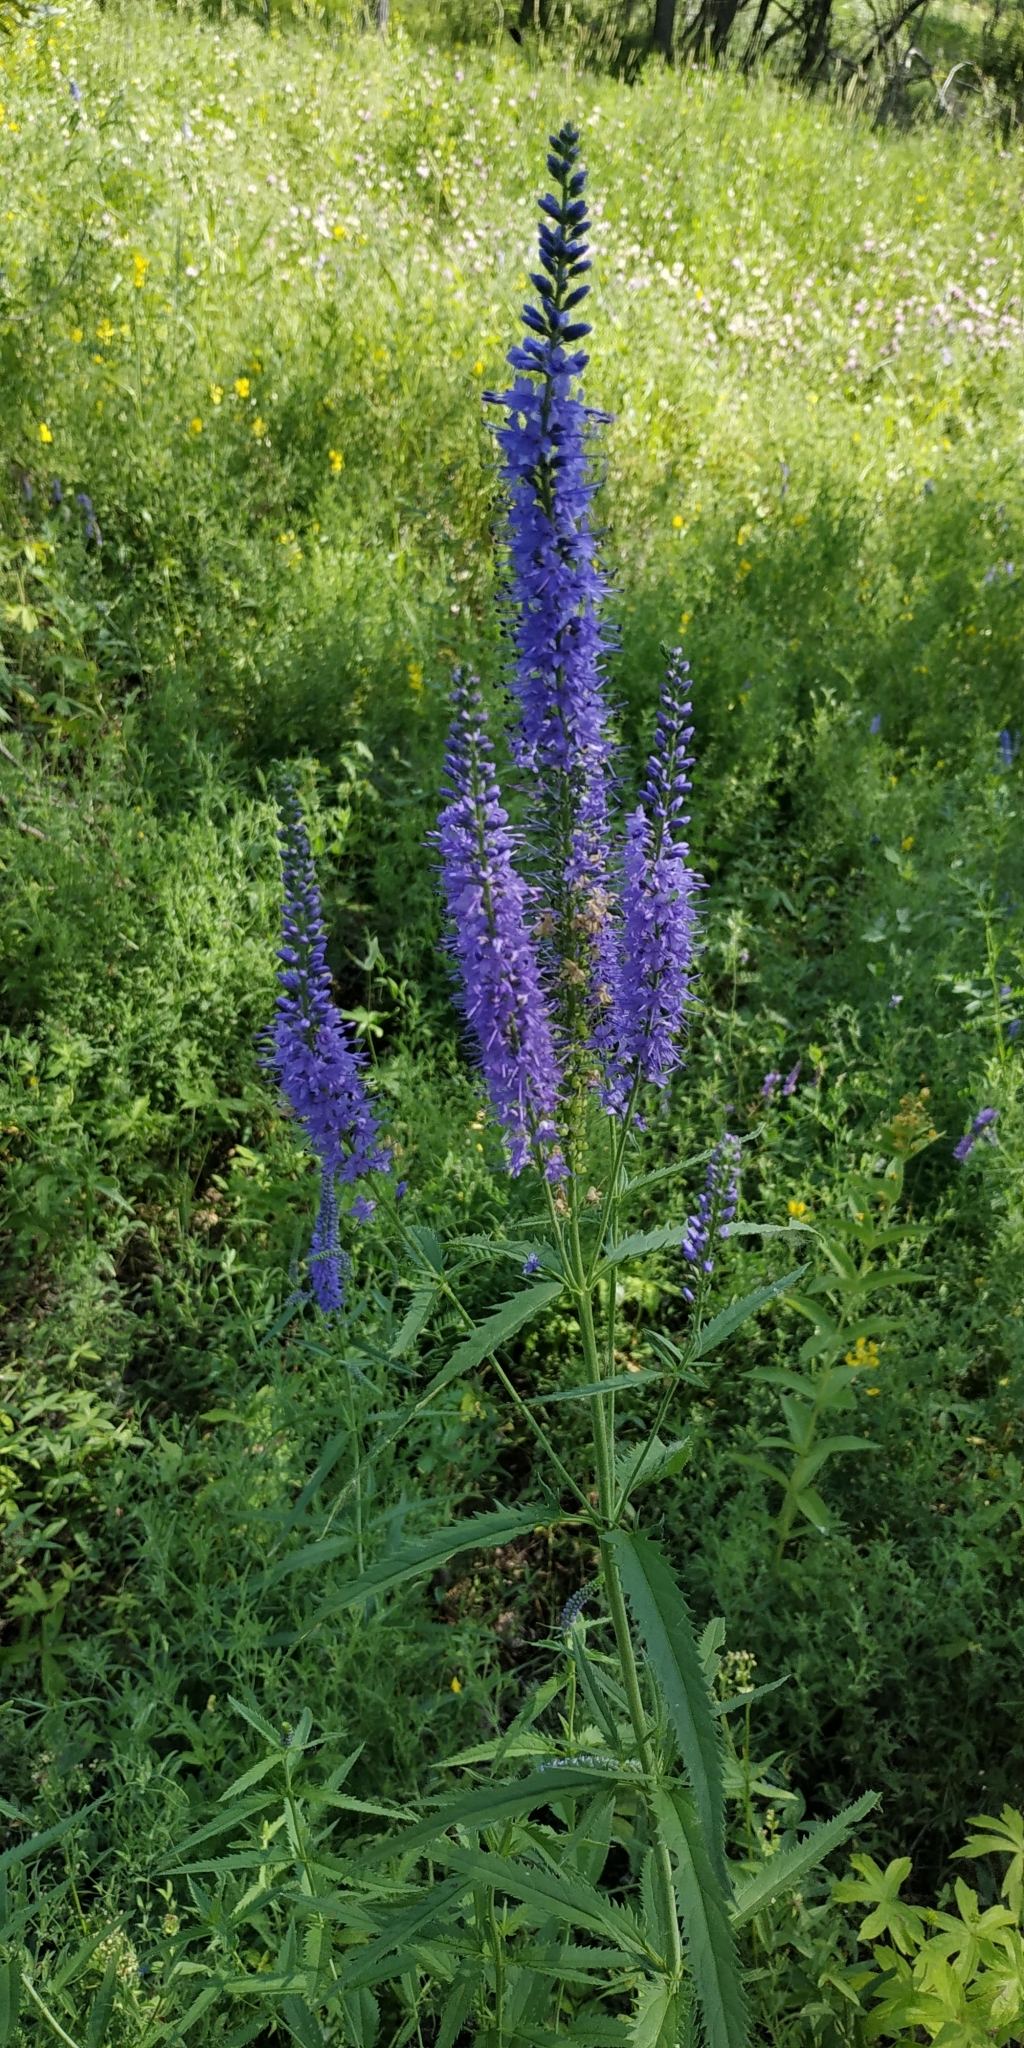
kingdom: Plantae
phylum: Tracheophyta
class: Magnoliopsida
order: Lamiales
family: Plantaginaceae
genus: Veronica
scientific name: Veronica longifolia
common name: Garden speedwell
